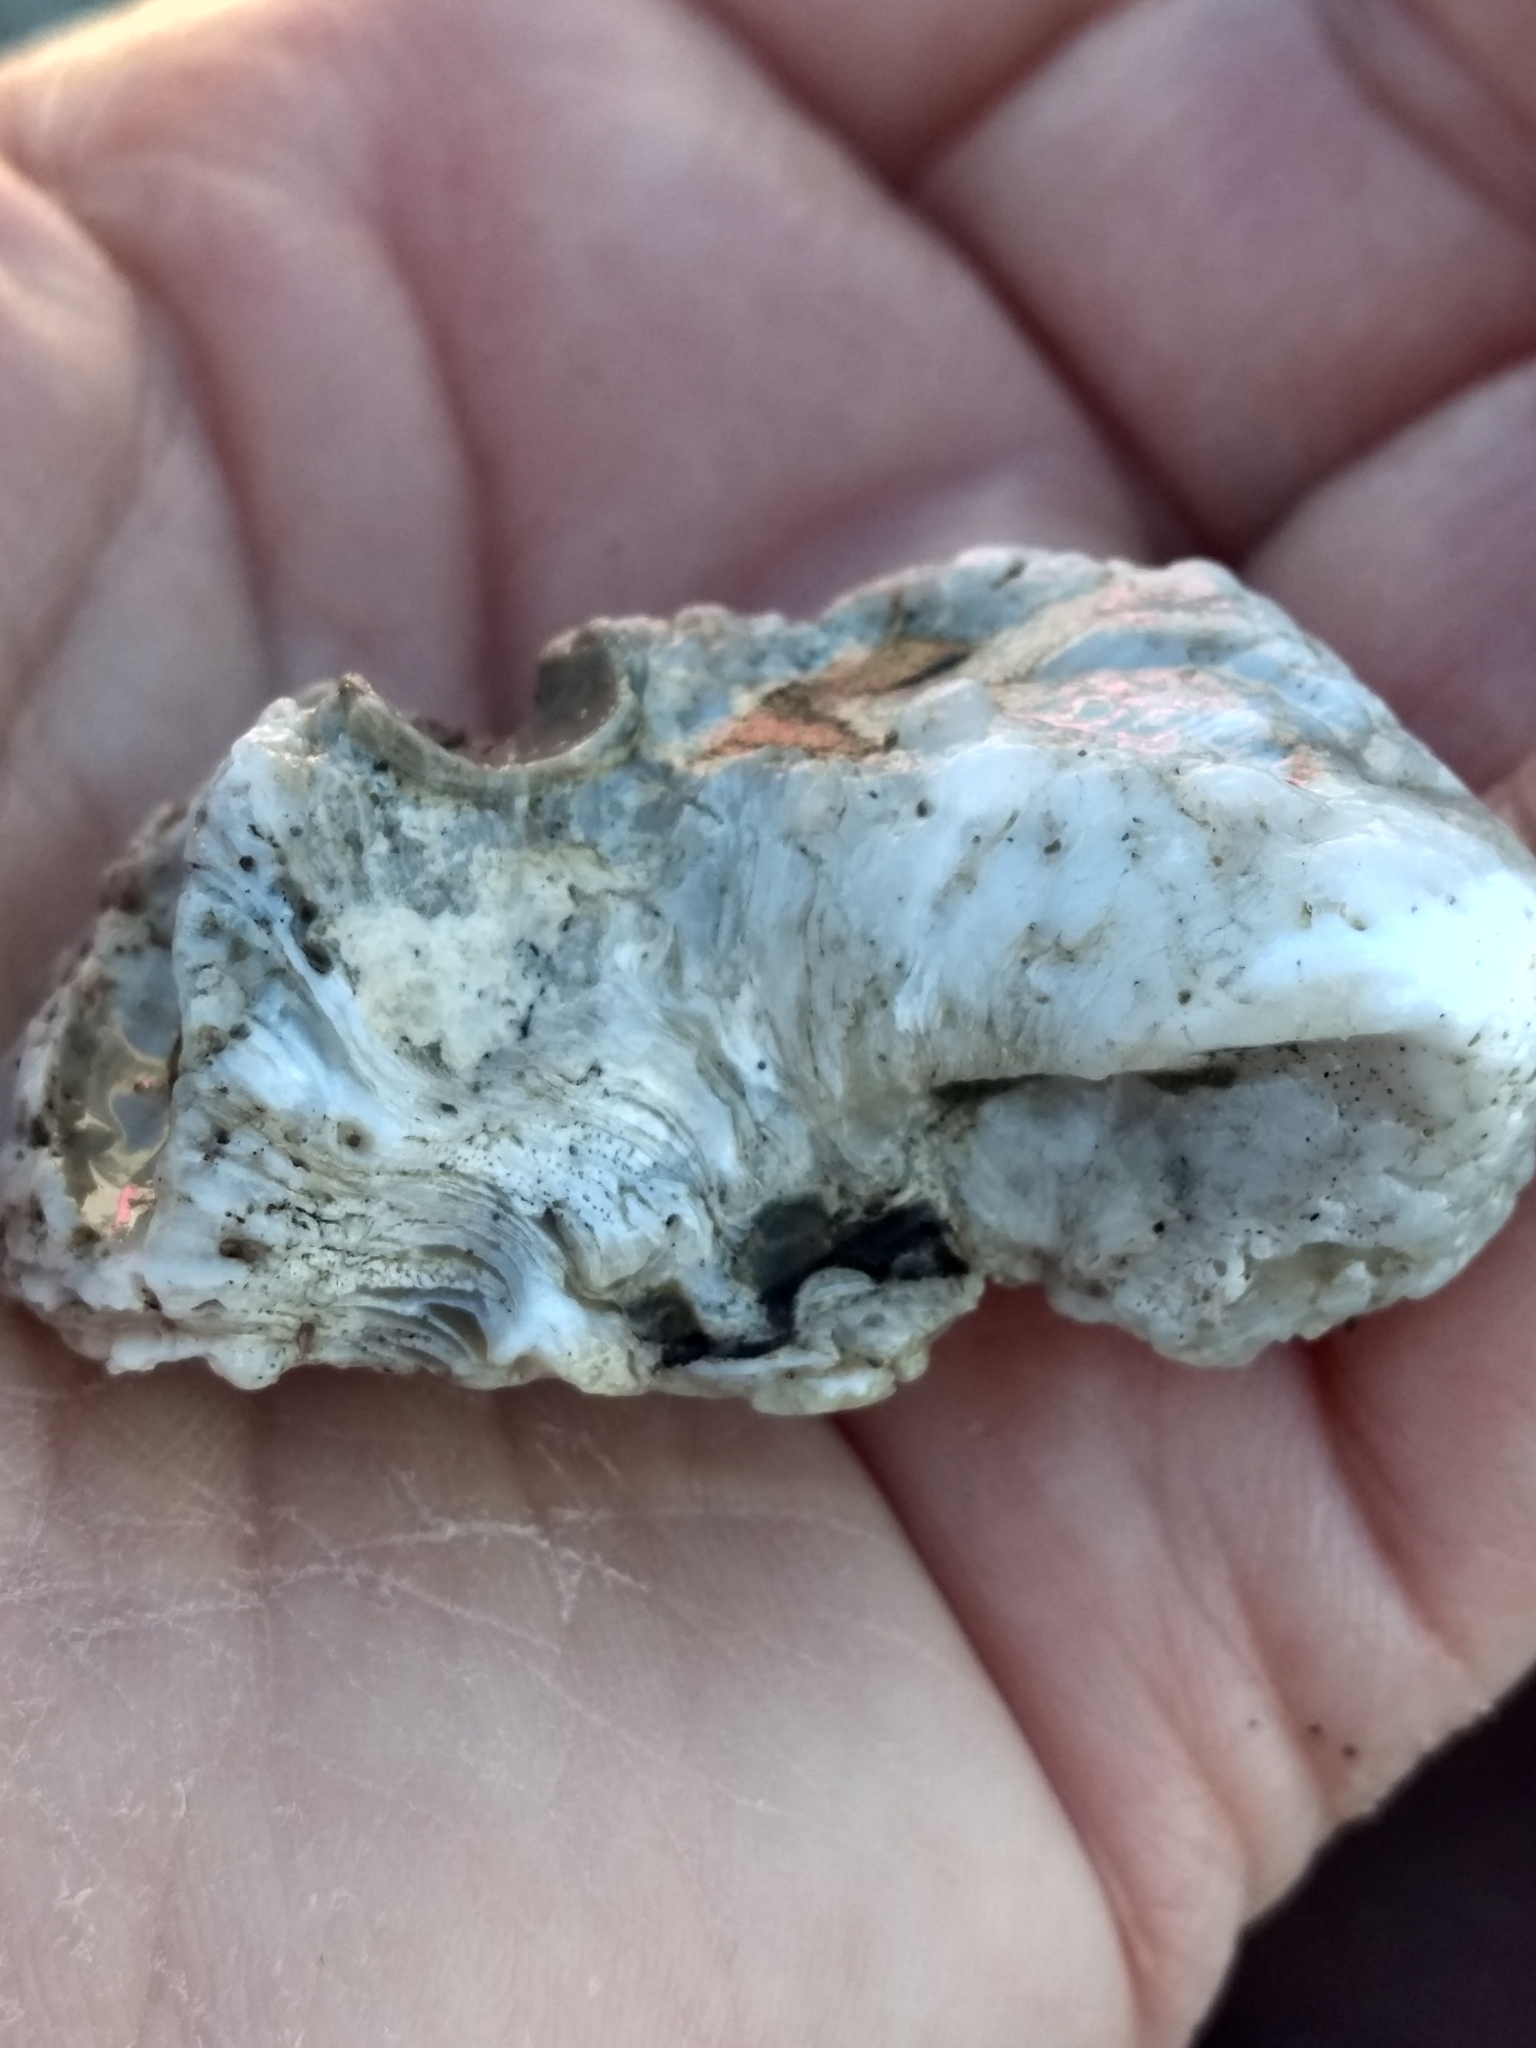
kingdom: Animalia
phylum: Mollusca
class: Bivalvia
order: Venerida
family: Chamidae
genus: Pseudochama
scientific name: Pseudochama exogyra
